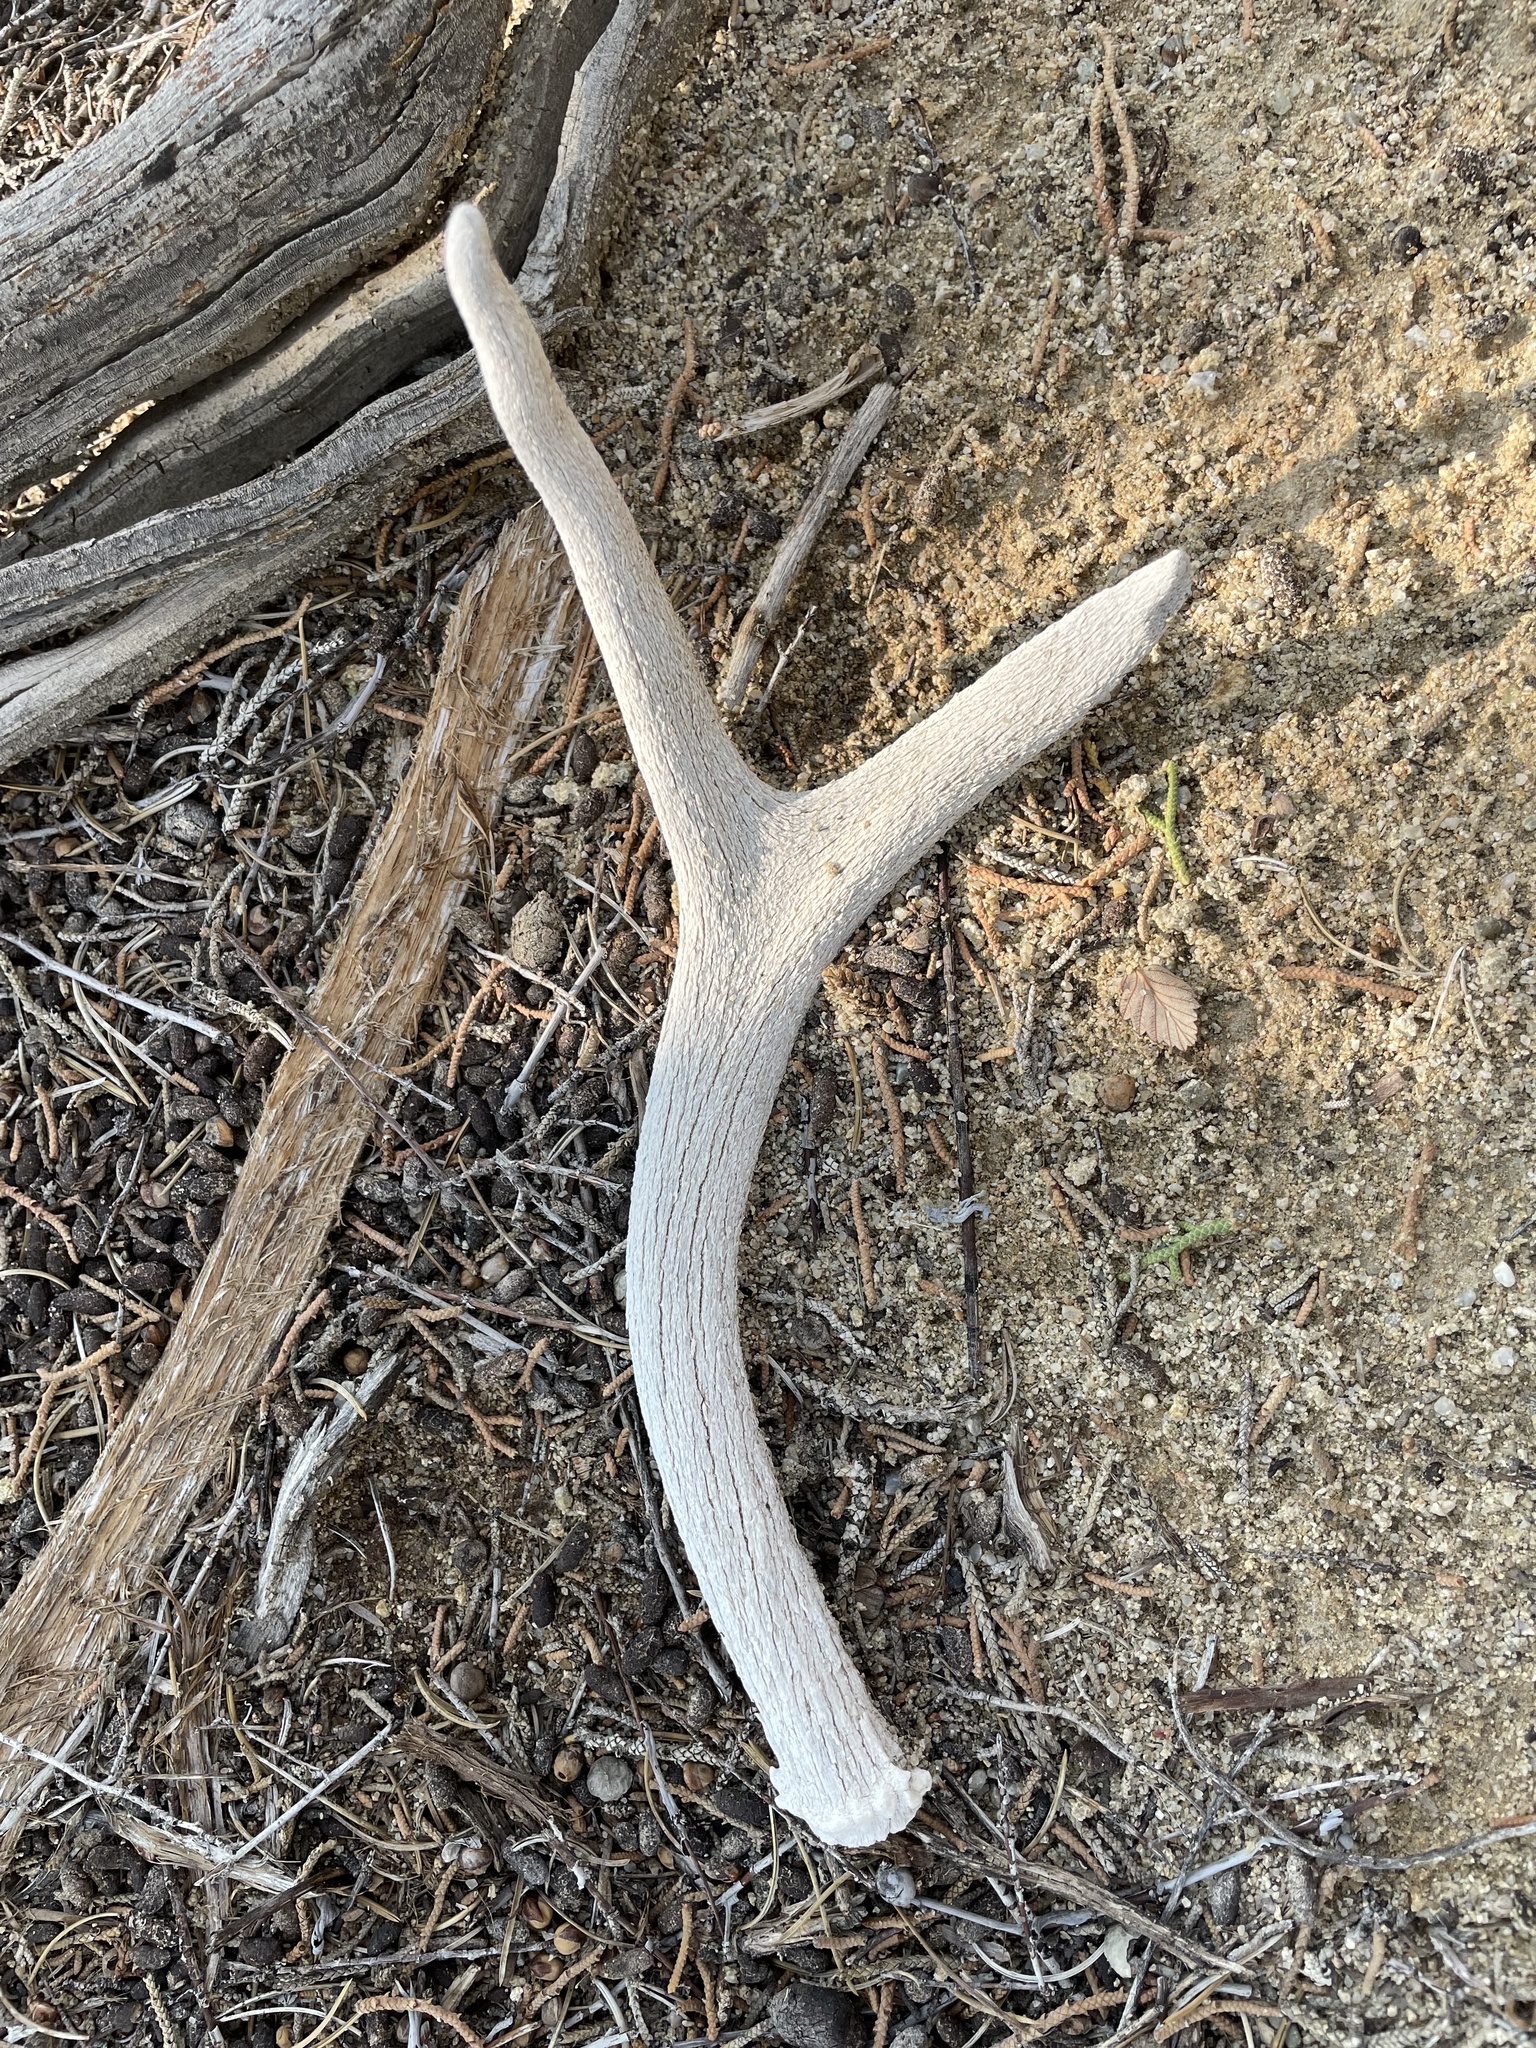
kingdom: Animalia
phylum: Chordata
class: Mammalia
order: Artiodactyla
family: Cervidae
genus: Odocoileus
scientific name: Odocoileus hemionus
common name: Mule deer
